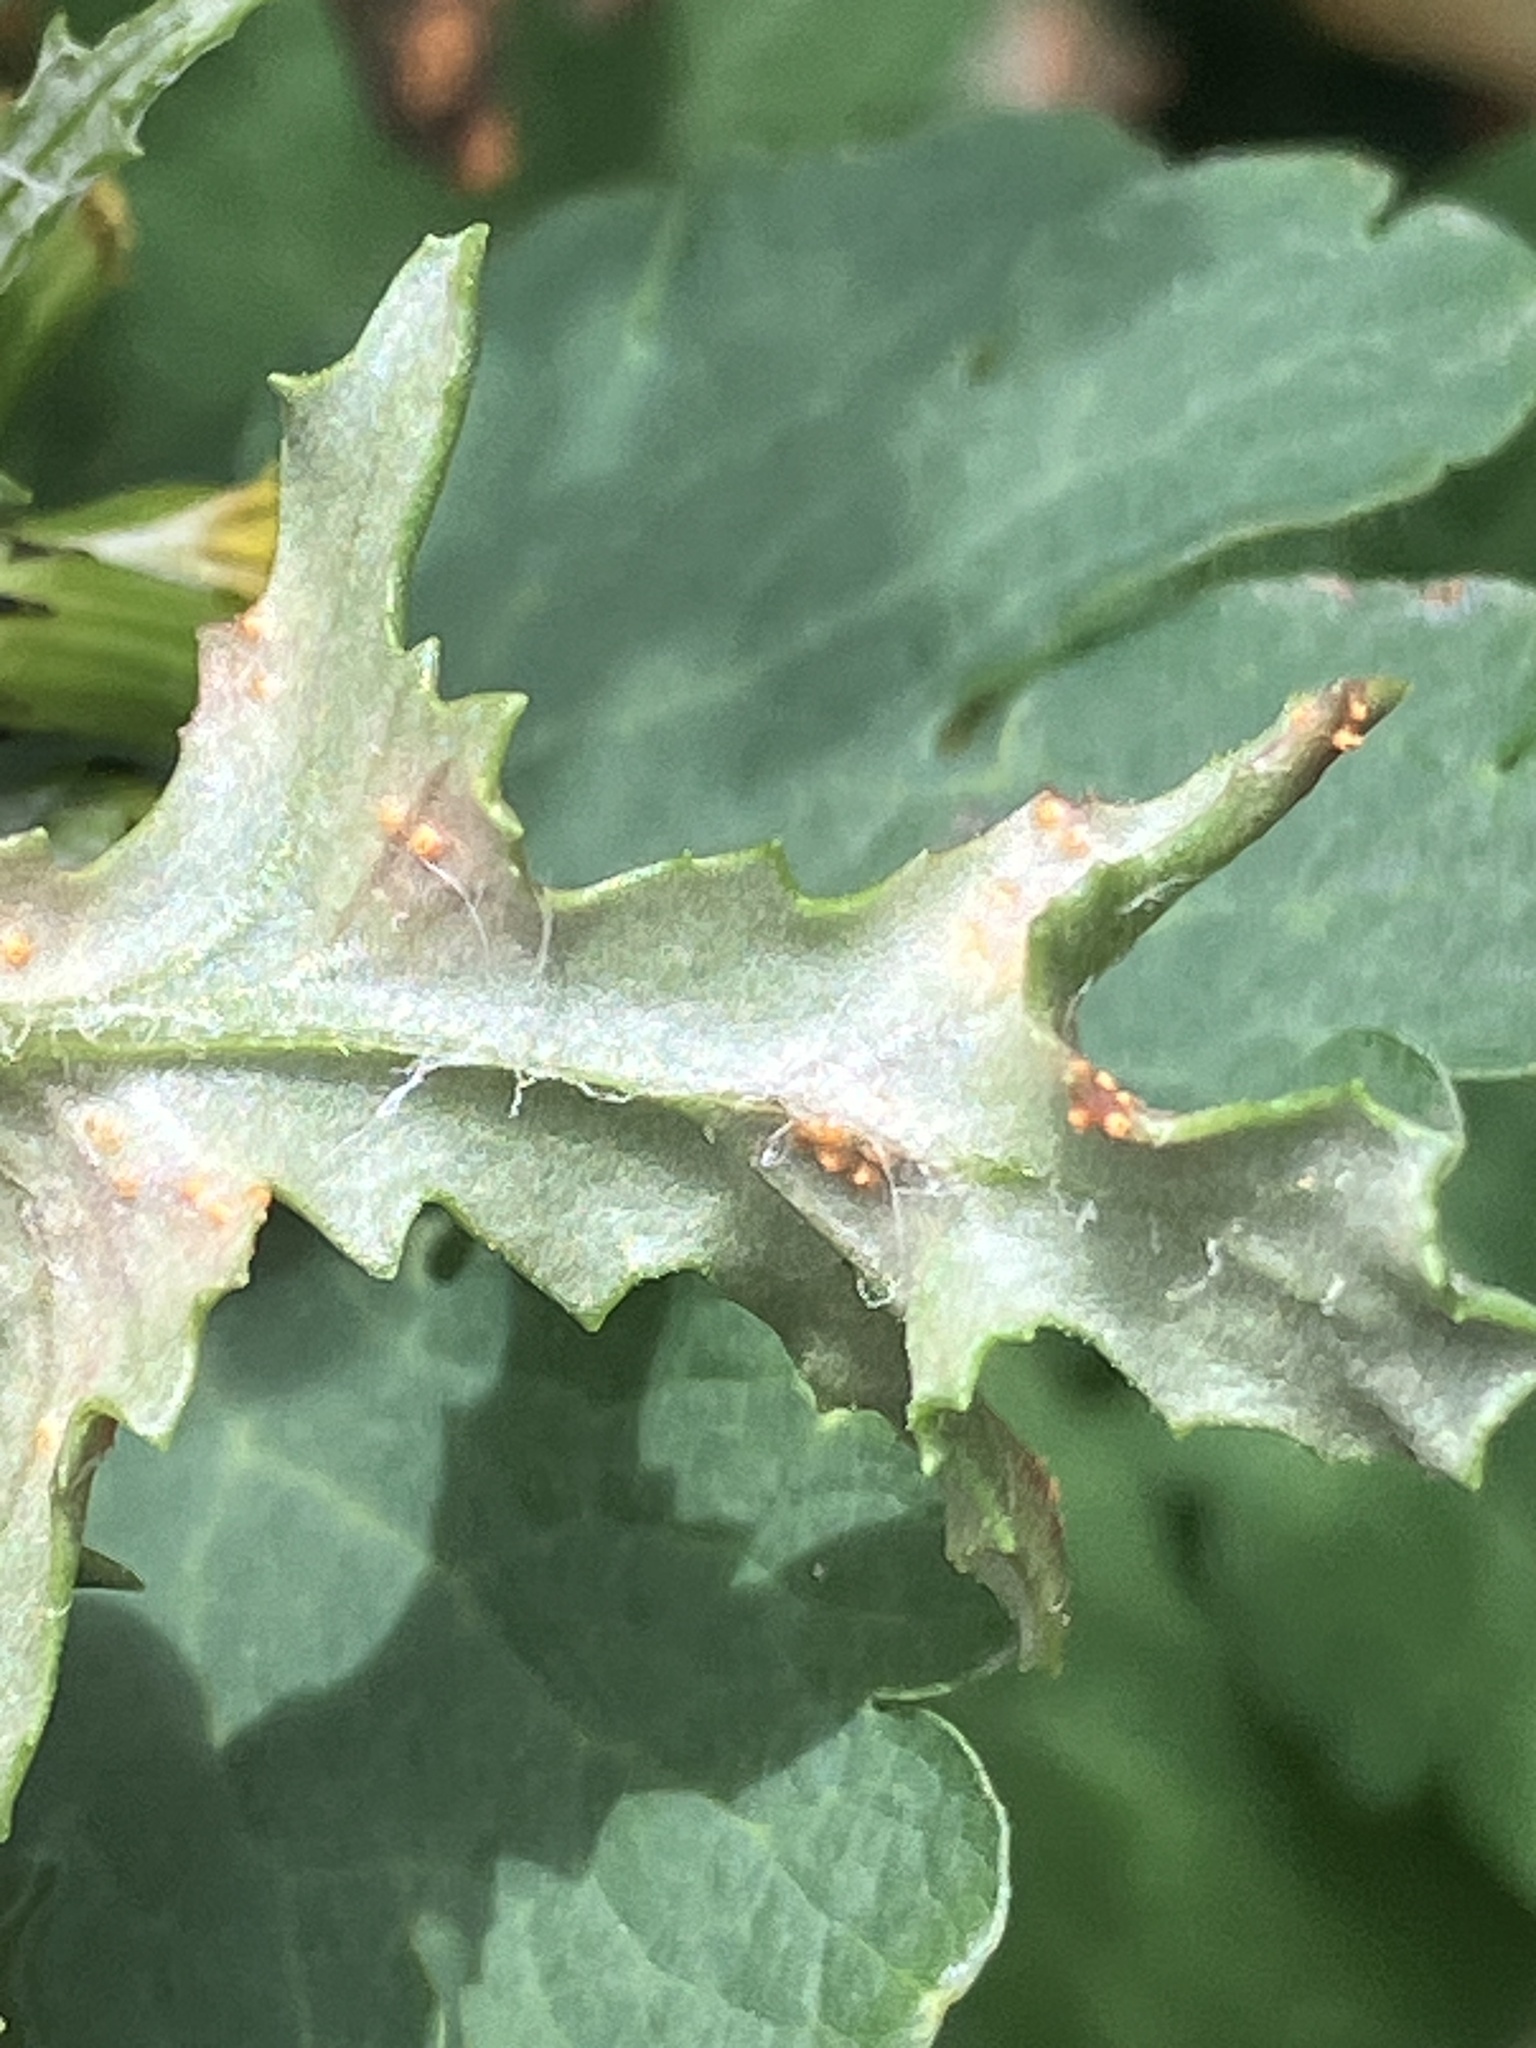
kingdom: Fungi
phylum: Basidiomycota
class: Pucciniomycetes
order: Pucciniales
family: Pucciniaceae
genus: Puccinia
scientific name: Puccinia lagenophorae
